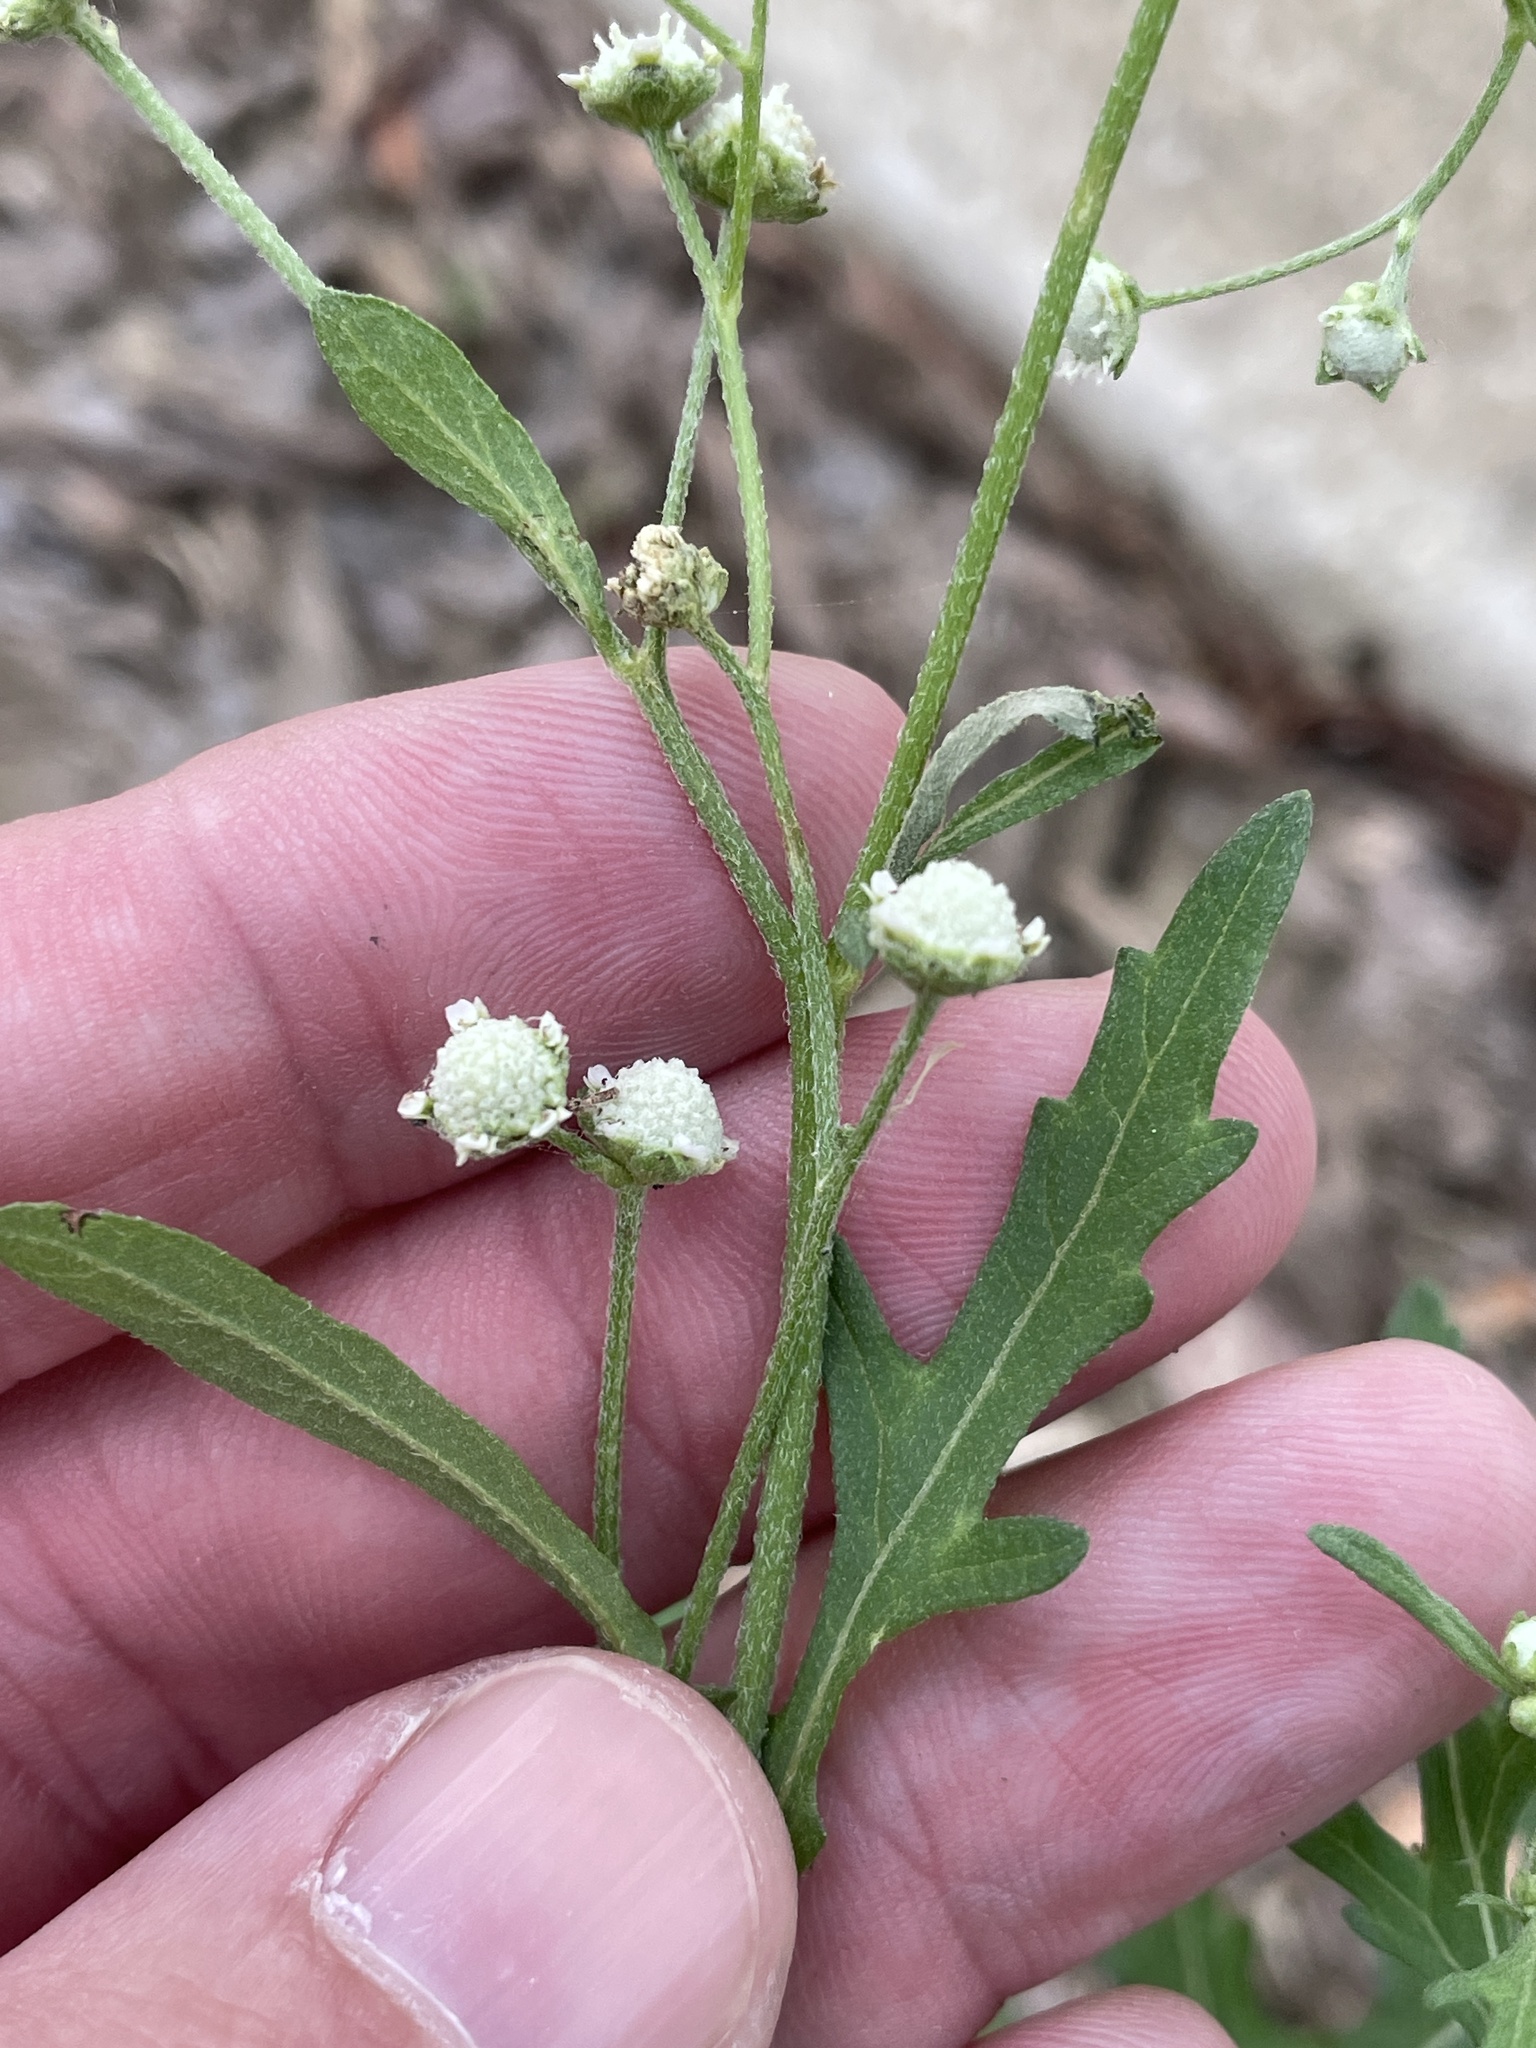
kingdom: Plantae
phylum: Tracheophyta
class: Magnoliopsida
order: Asterales
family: Asteraceae
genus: Parthenium
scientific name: Parthenium hysterophorus
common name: Santa maria feverfew
